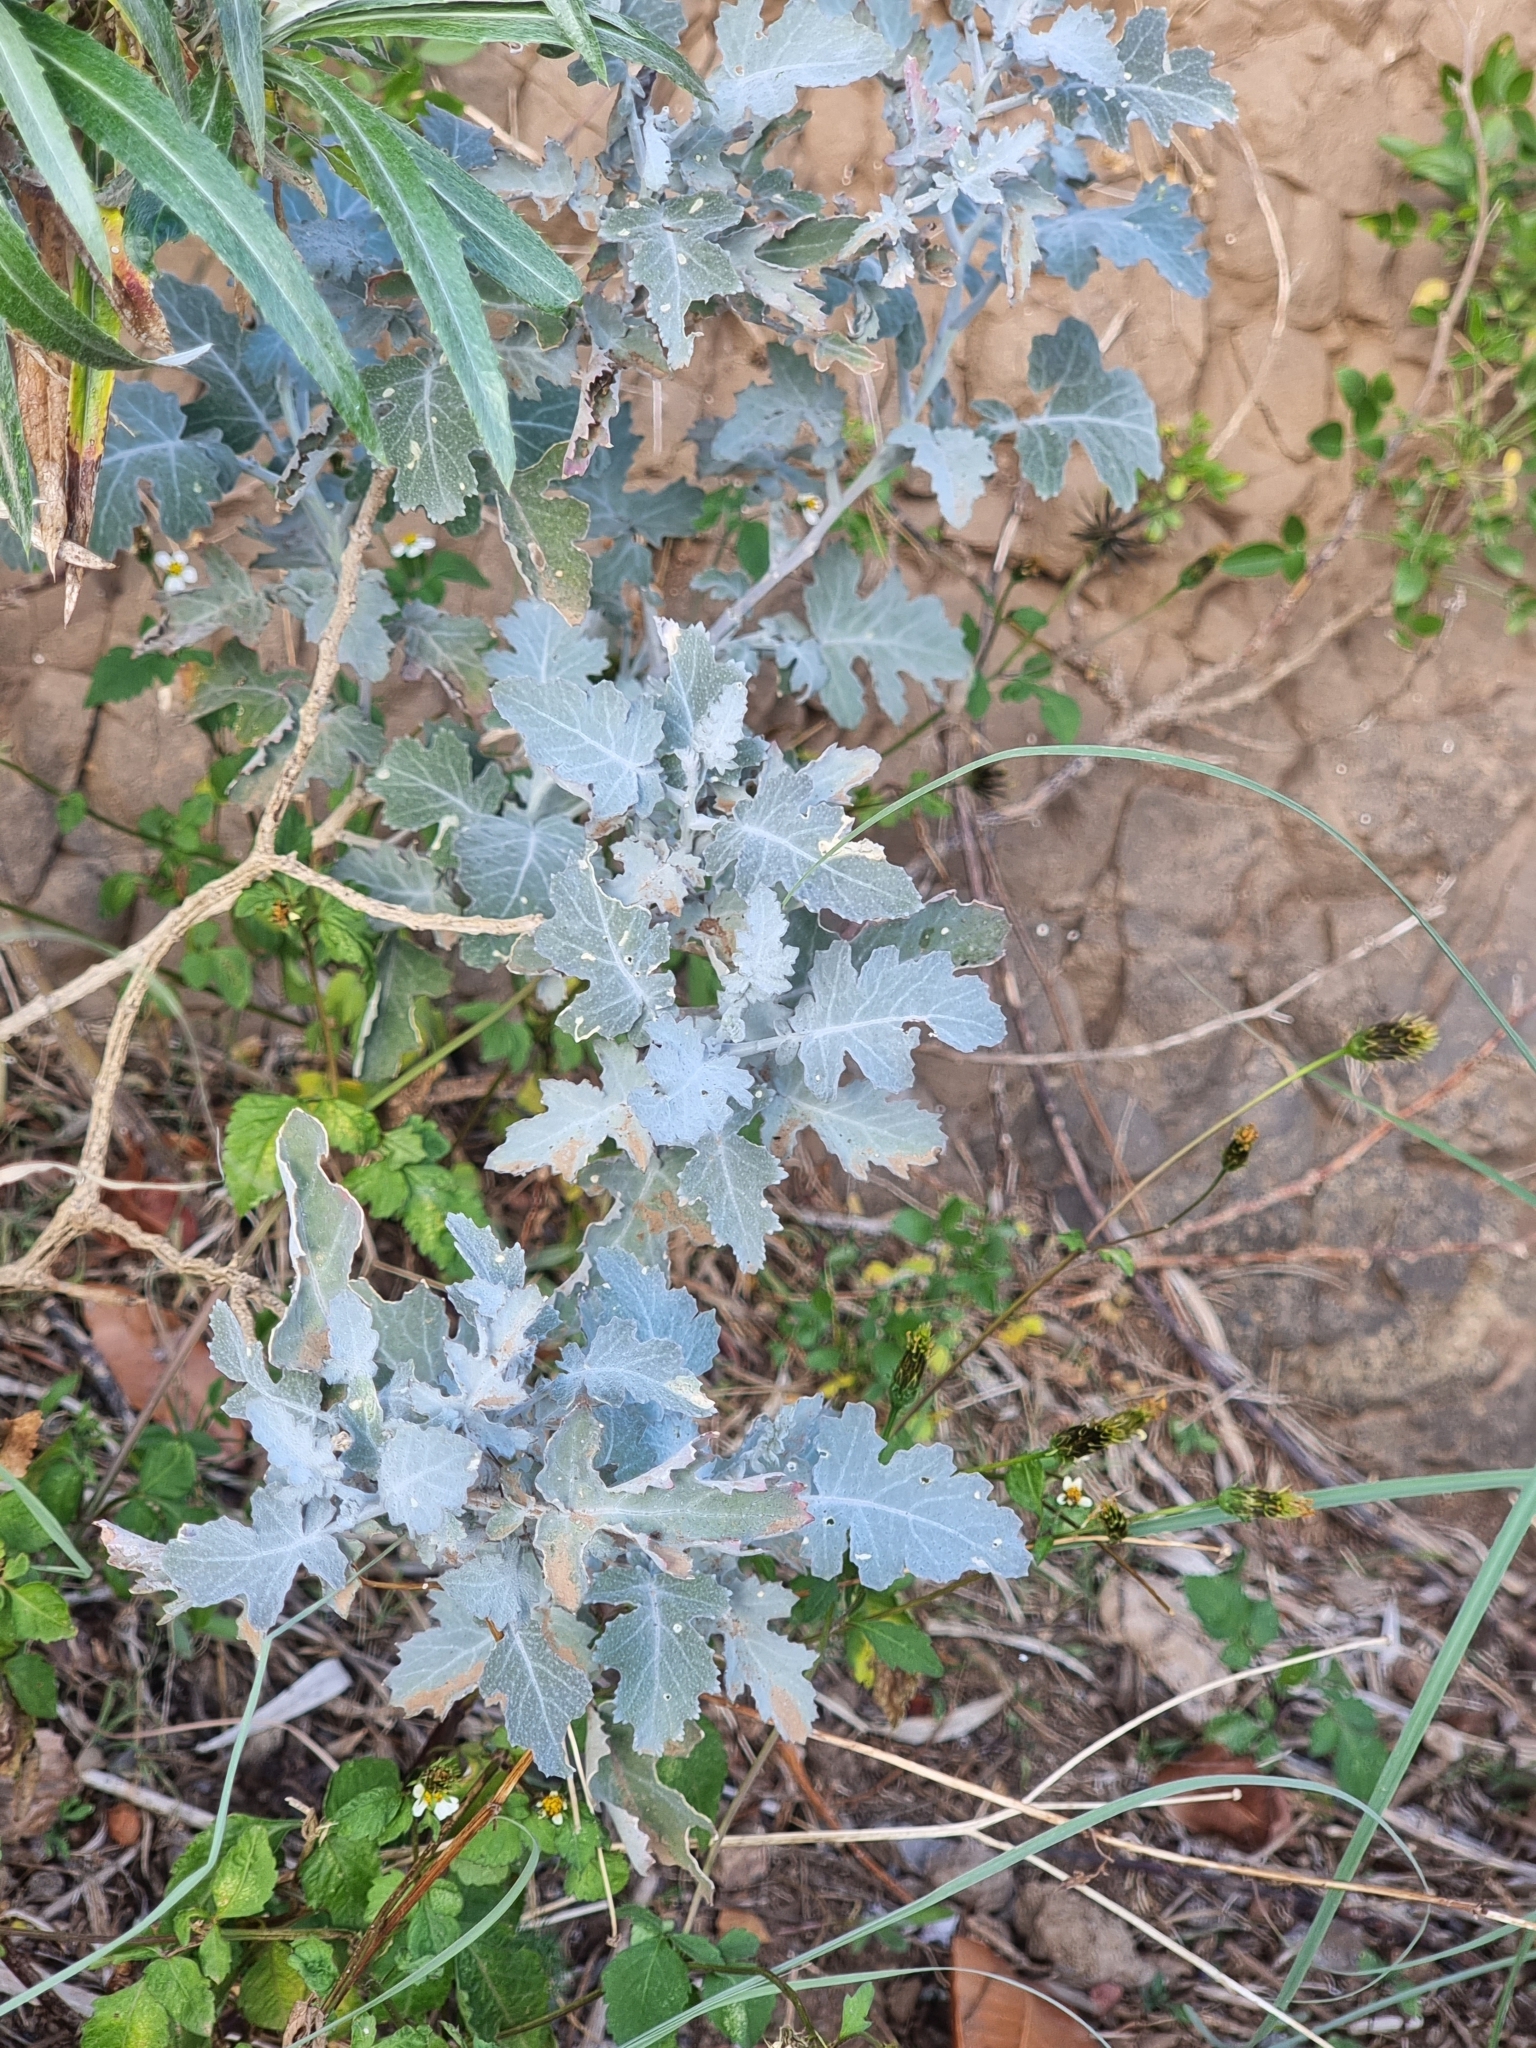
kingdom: Plantae
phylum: Tracheophyta
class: Magnoliopsida
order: Brassicales
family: Brassicaceae
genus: Crambe
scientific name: Crambe fruticosa
